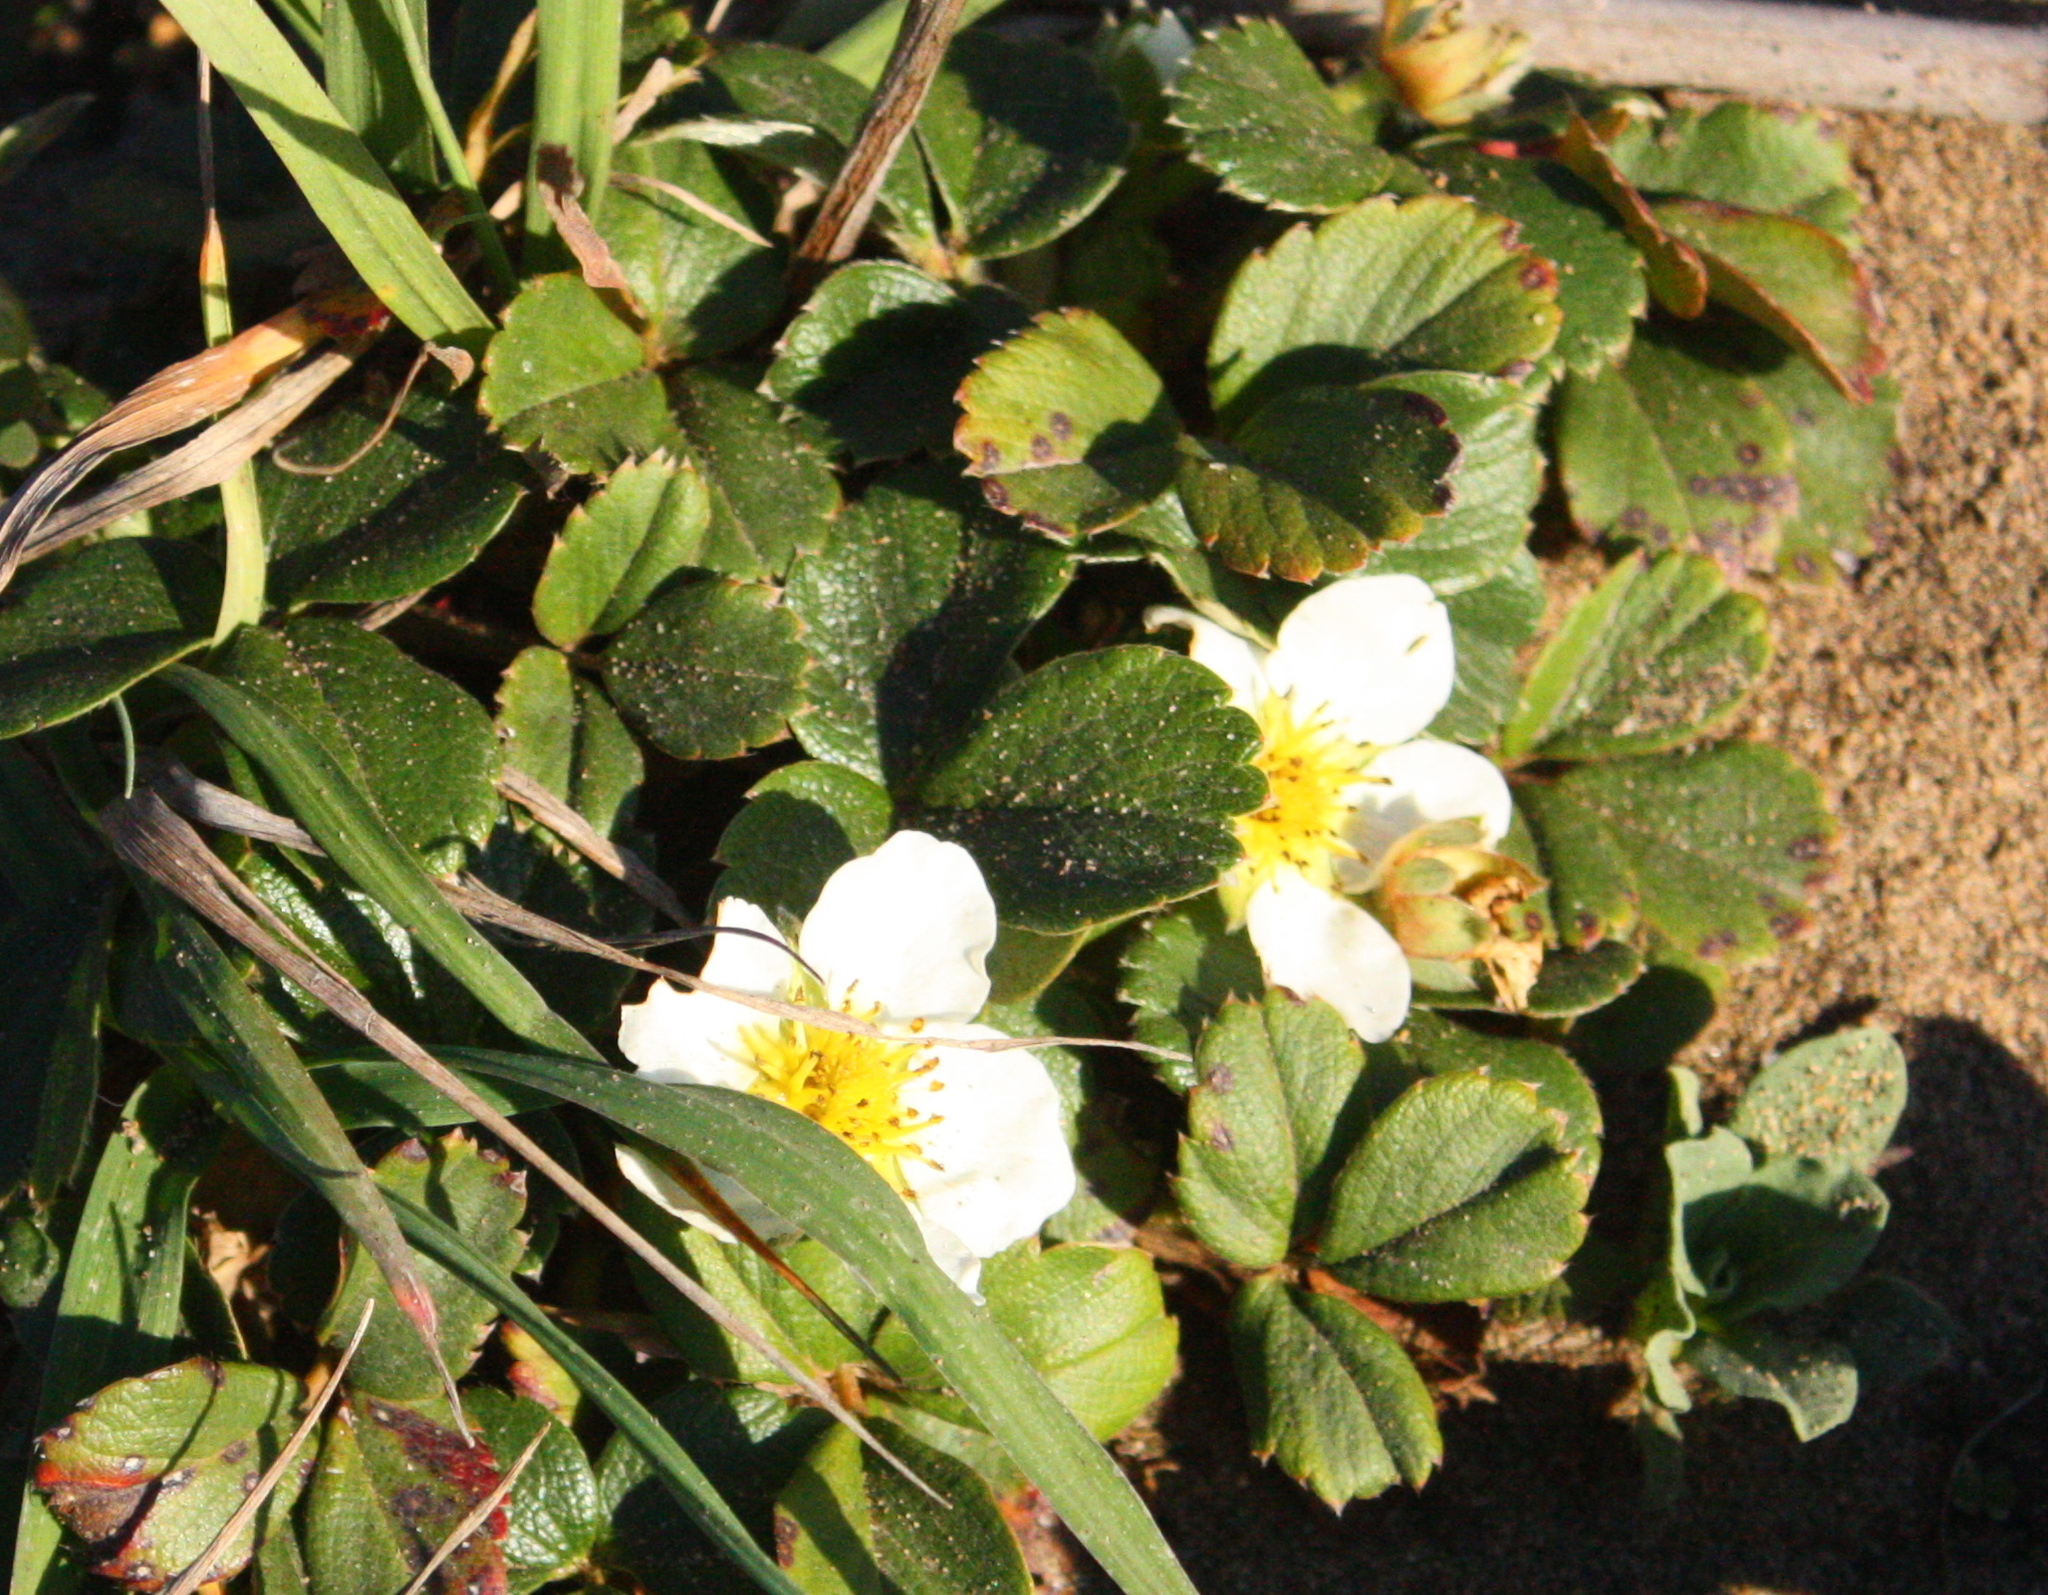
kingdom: Plantae
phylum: Tracheophyta
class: Magnoliopsida
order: Rosales
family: Rosaceae
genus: Fragaria
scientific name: Fragaria chiloensis
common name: Beach strawberry
